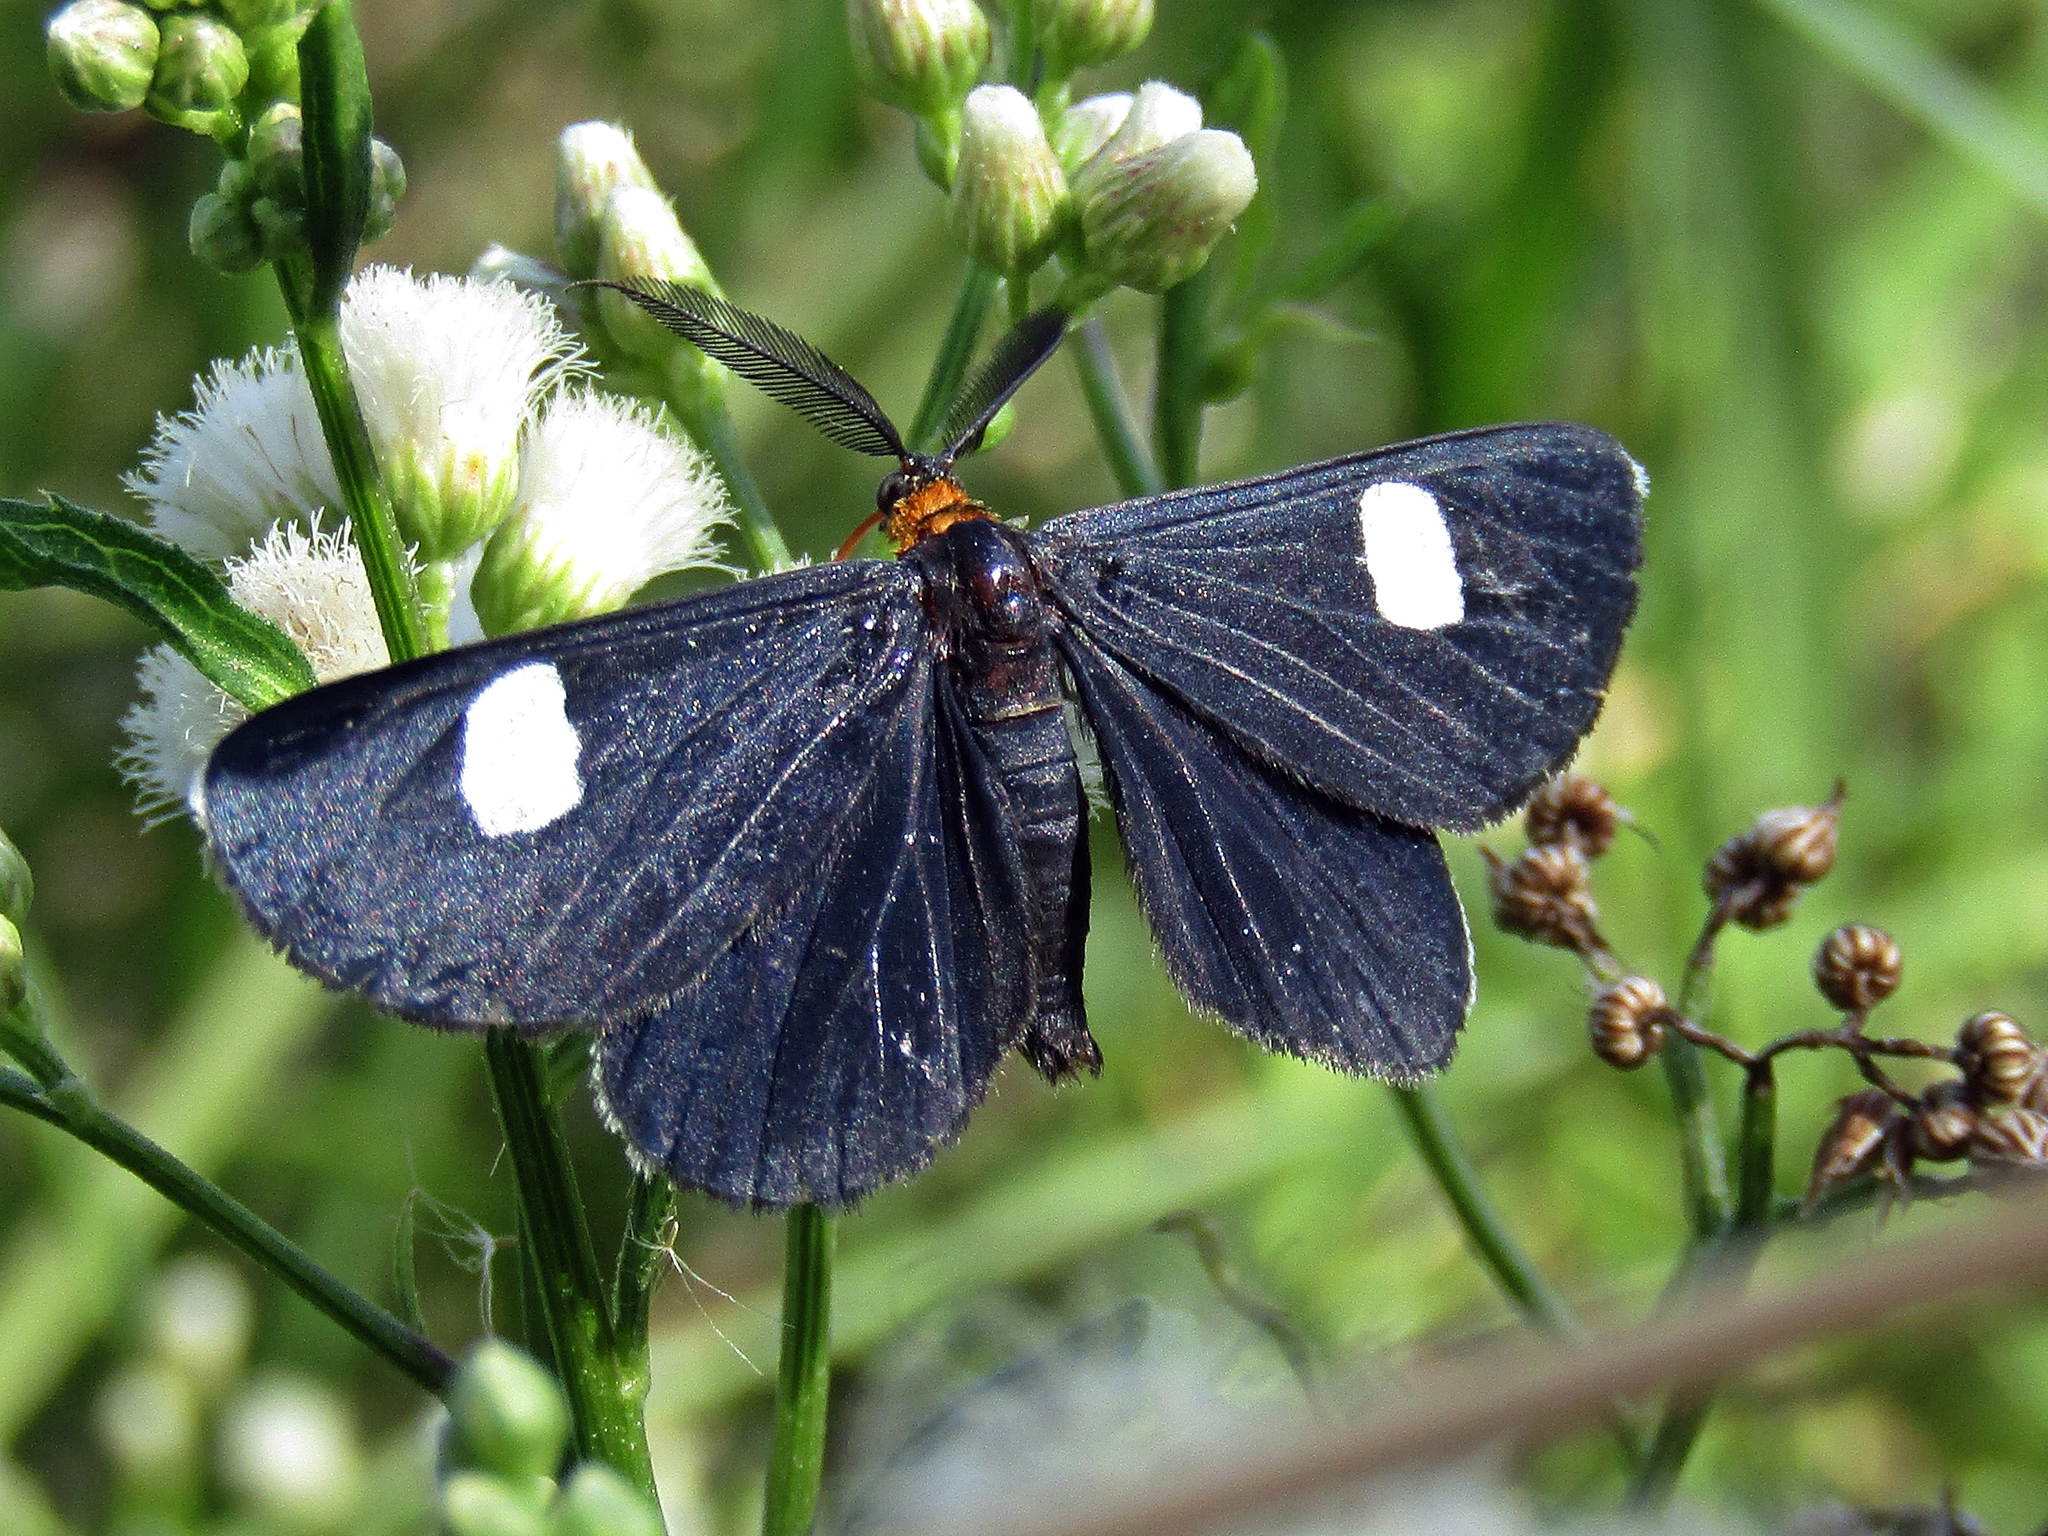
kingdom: Animalia
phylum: Arthropoda
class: Insecta
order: Lepidoptera
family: Geometridae
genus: Melanchroia
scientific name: Melanchroia aterea
